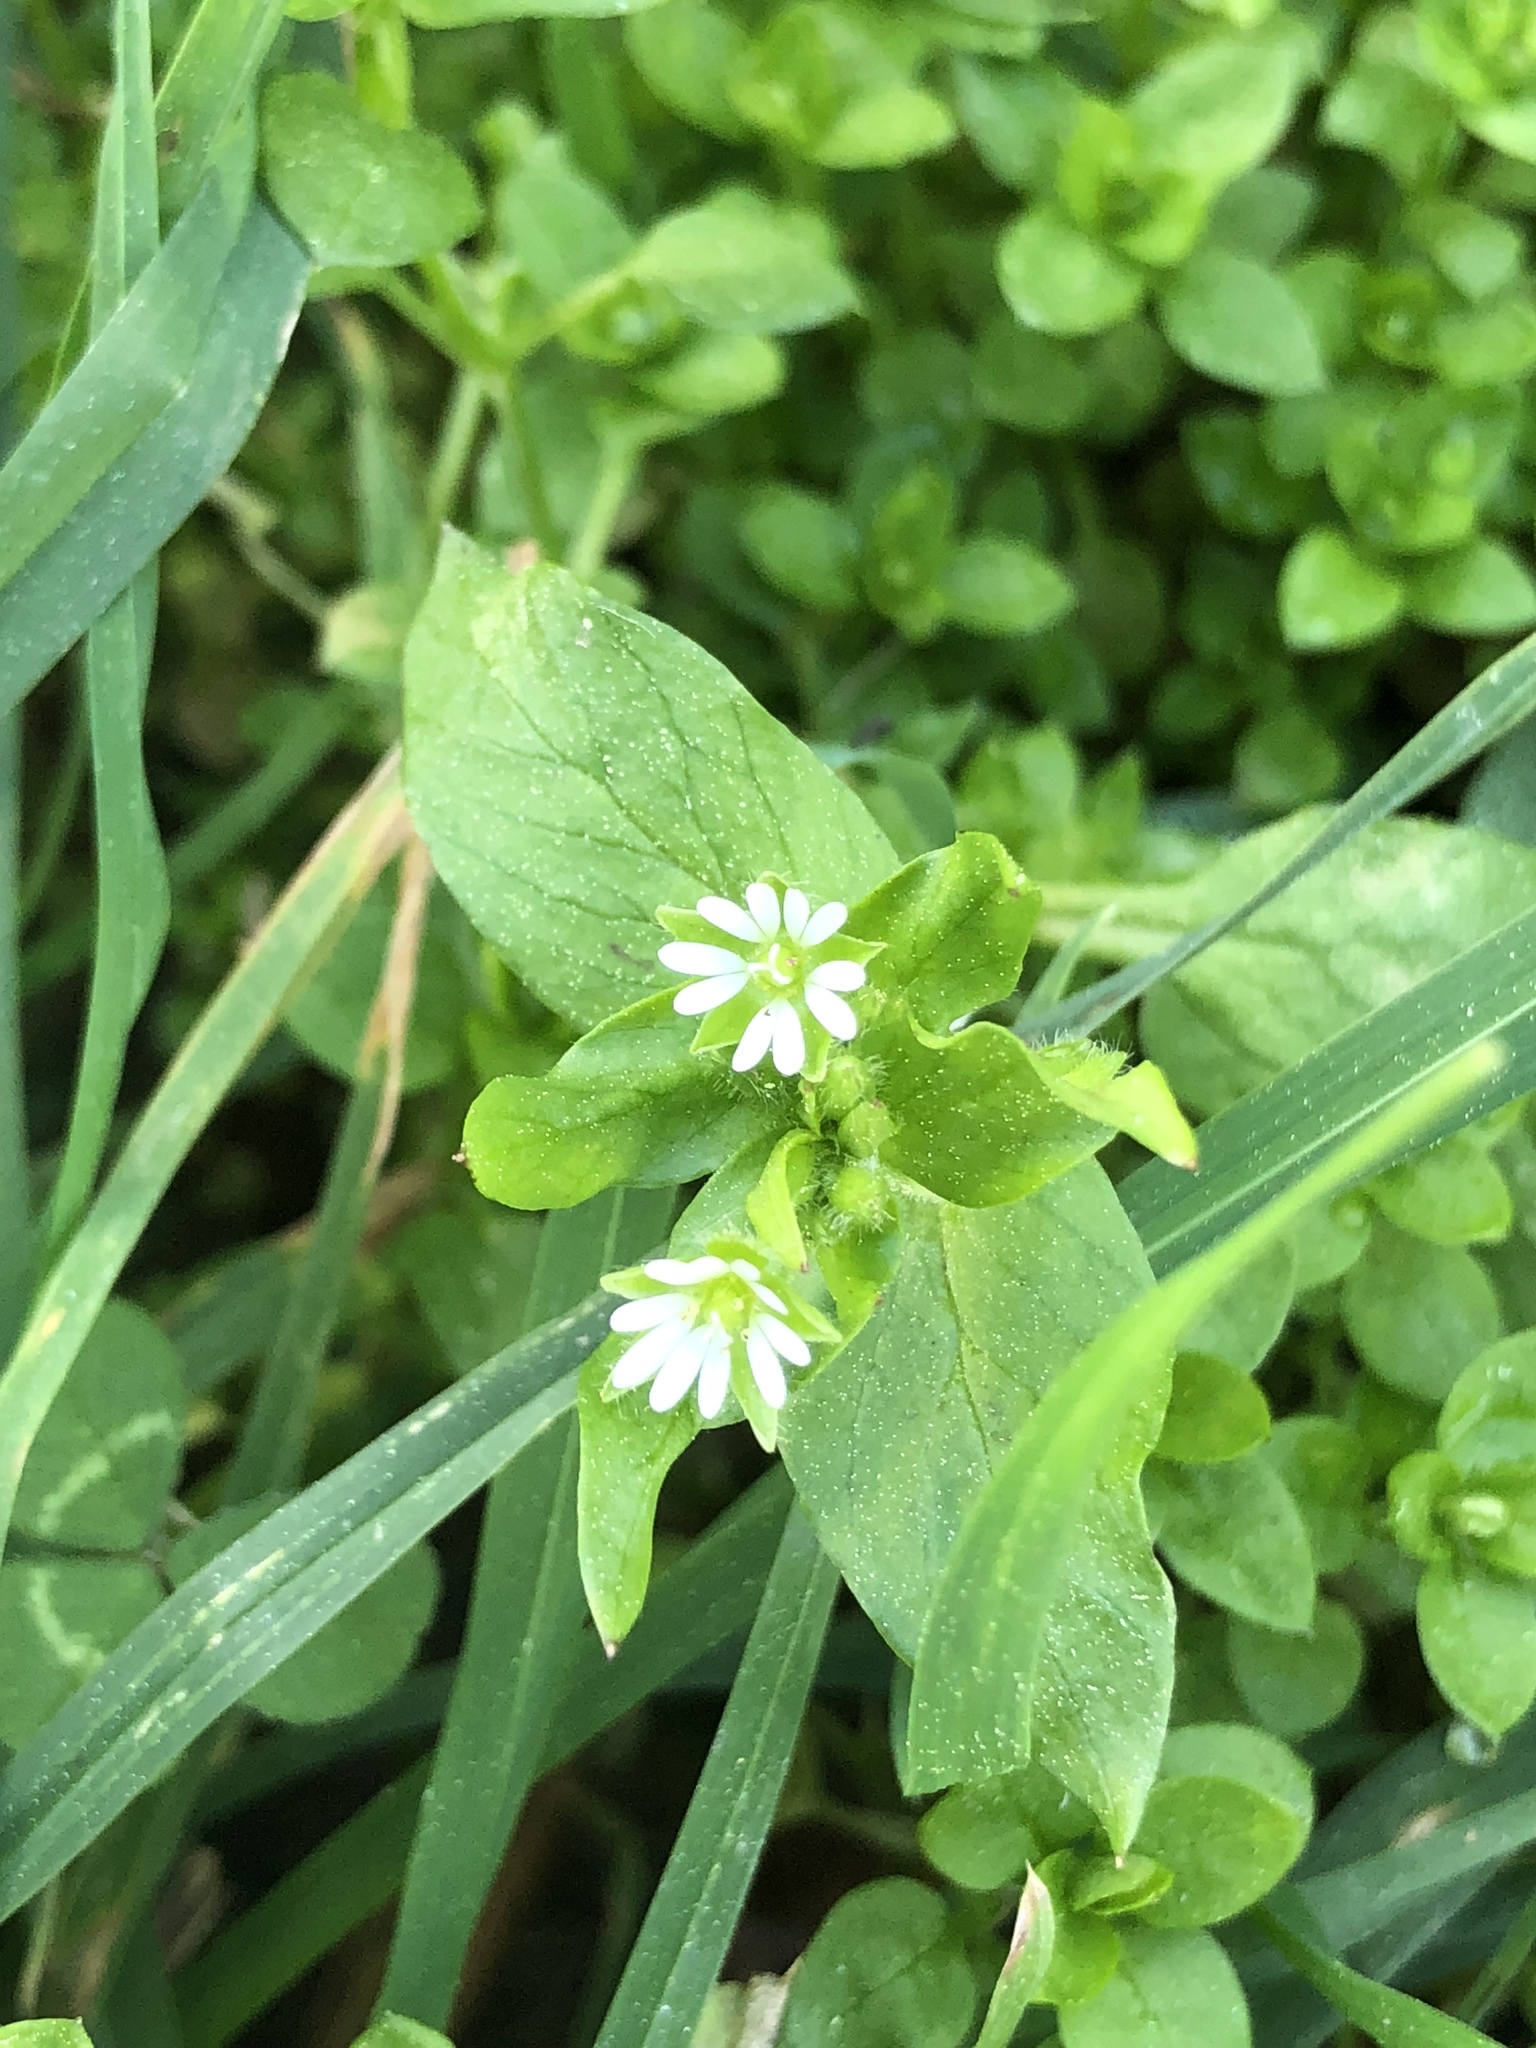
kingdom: Plantae
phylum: Tracheophyta
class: Magnoliopsida
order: Caryophyllales
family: Caryophyllaceae
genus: Stellaria
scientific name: Stellaria media
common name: Common chickweed
